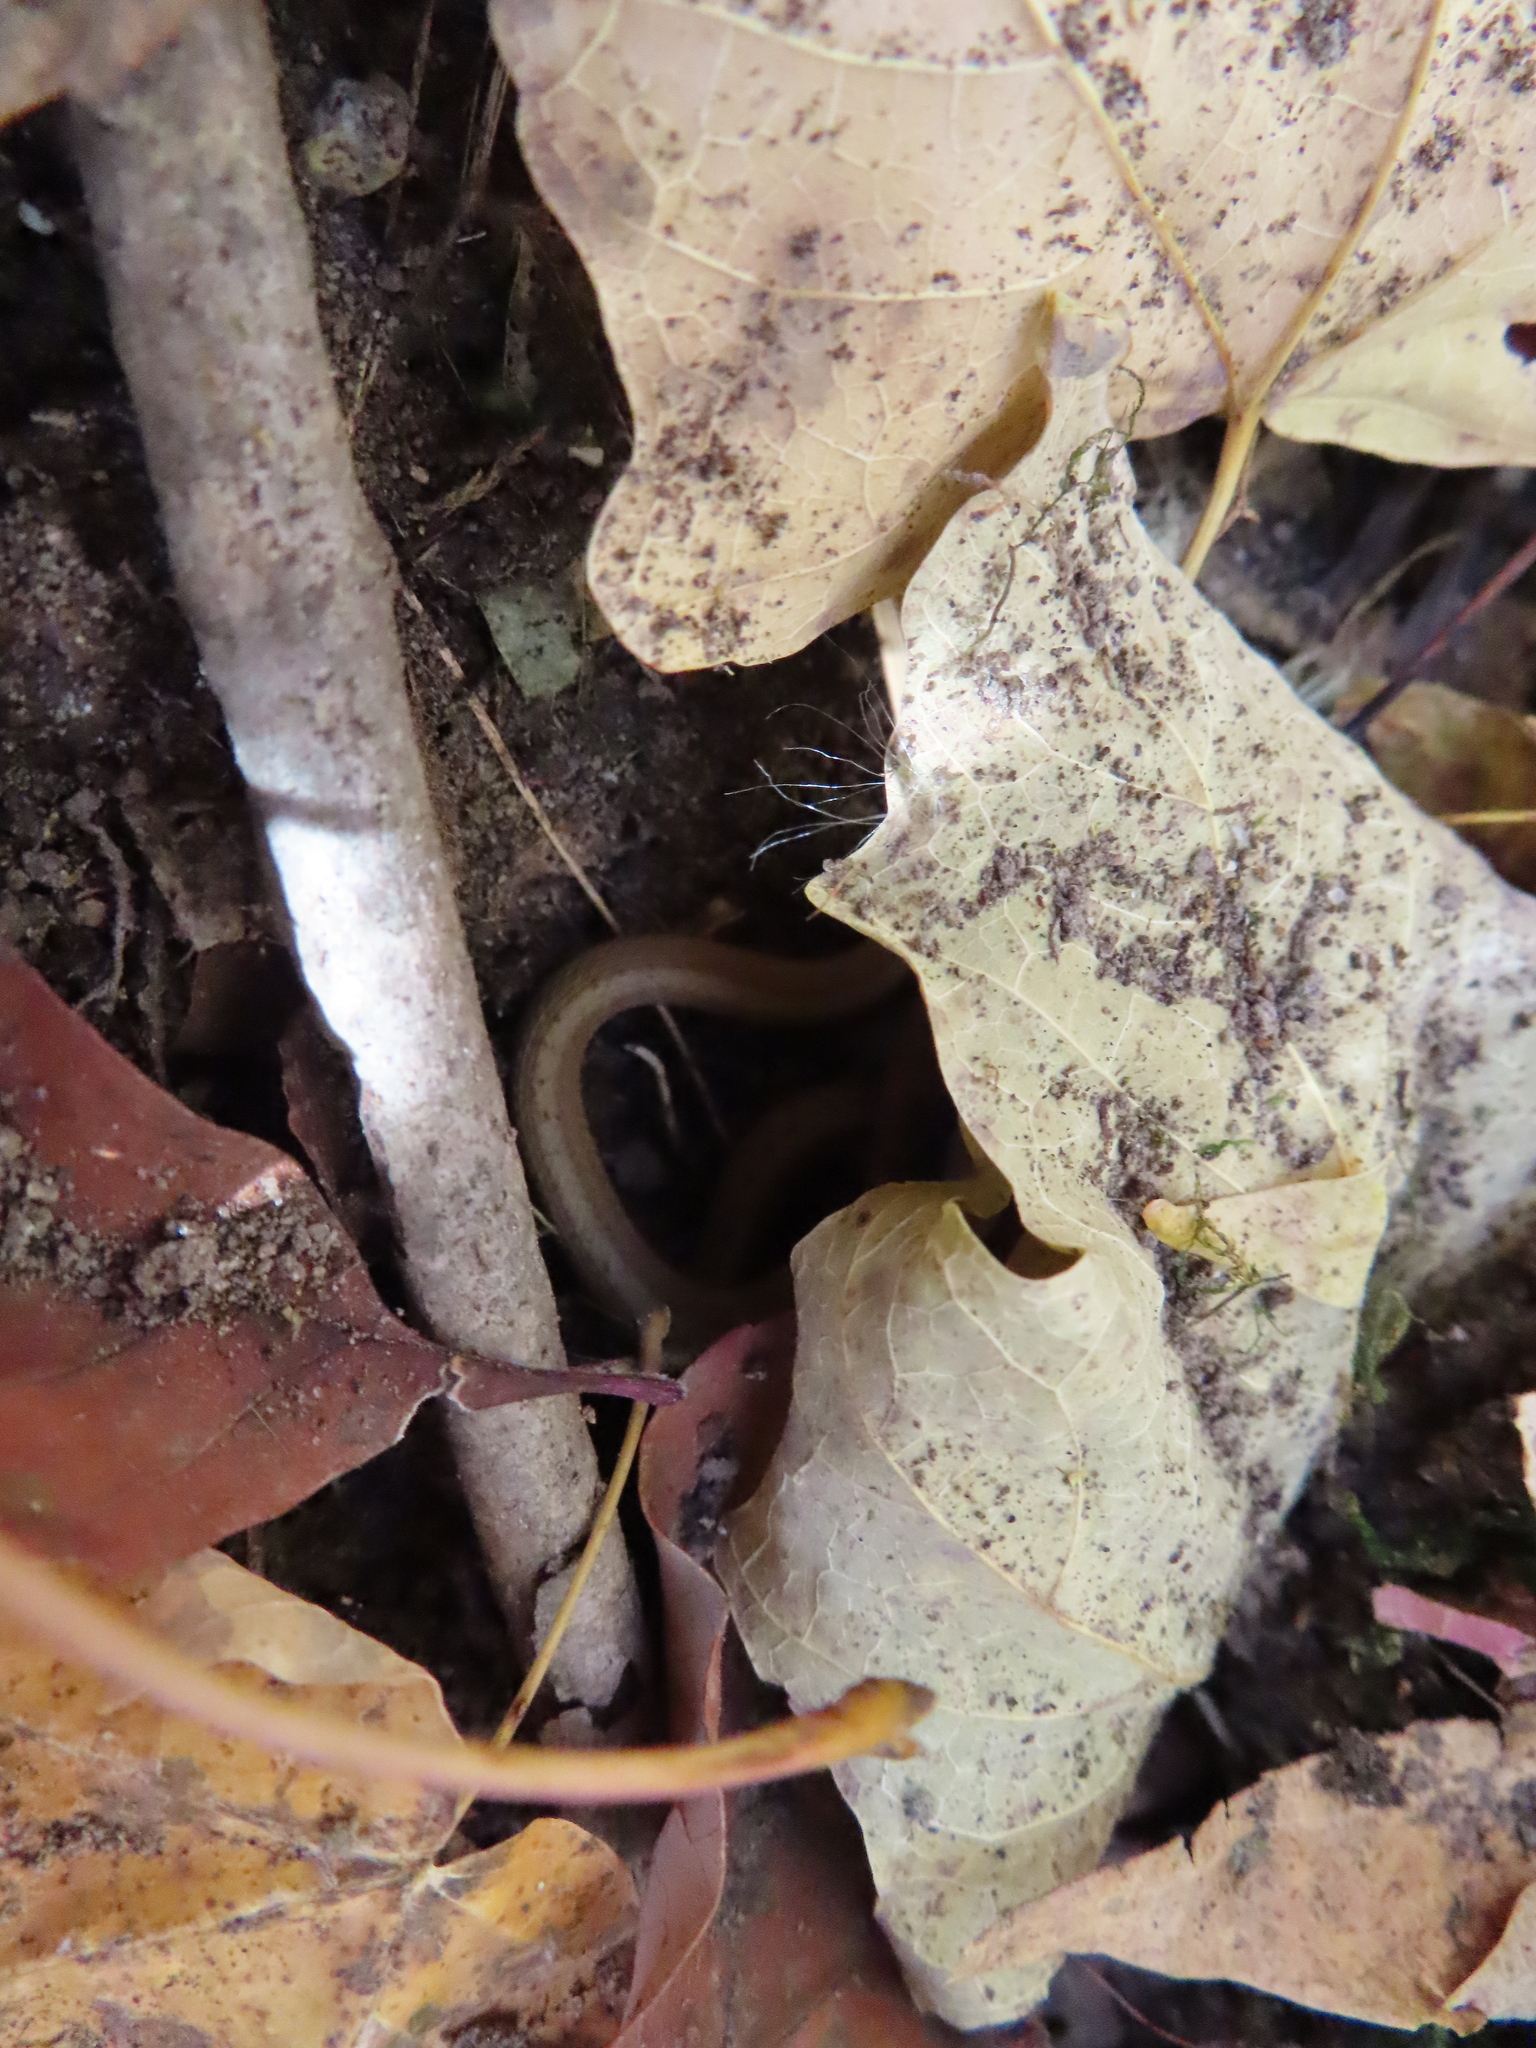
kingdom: Animalia
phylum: Chordata
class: Squamata
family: Colubridae
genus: Storeria
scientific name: Storeria dekayi
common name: (dekay’s) brown snake
